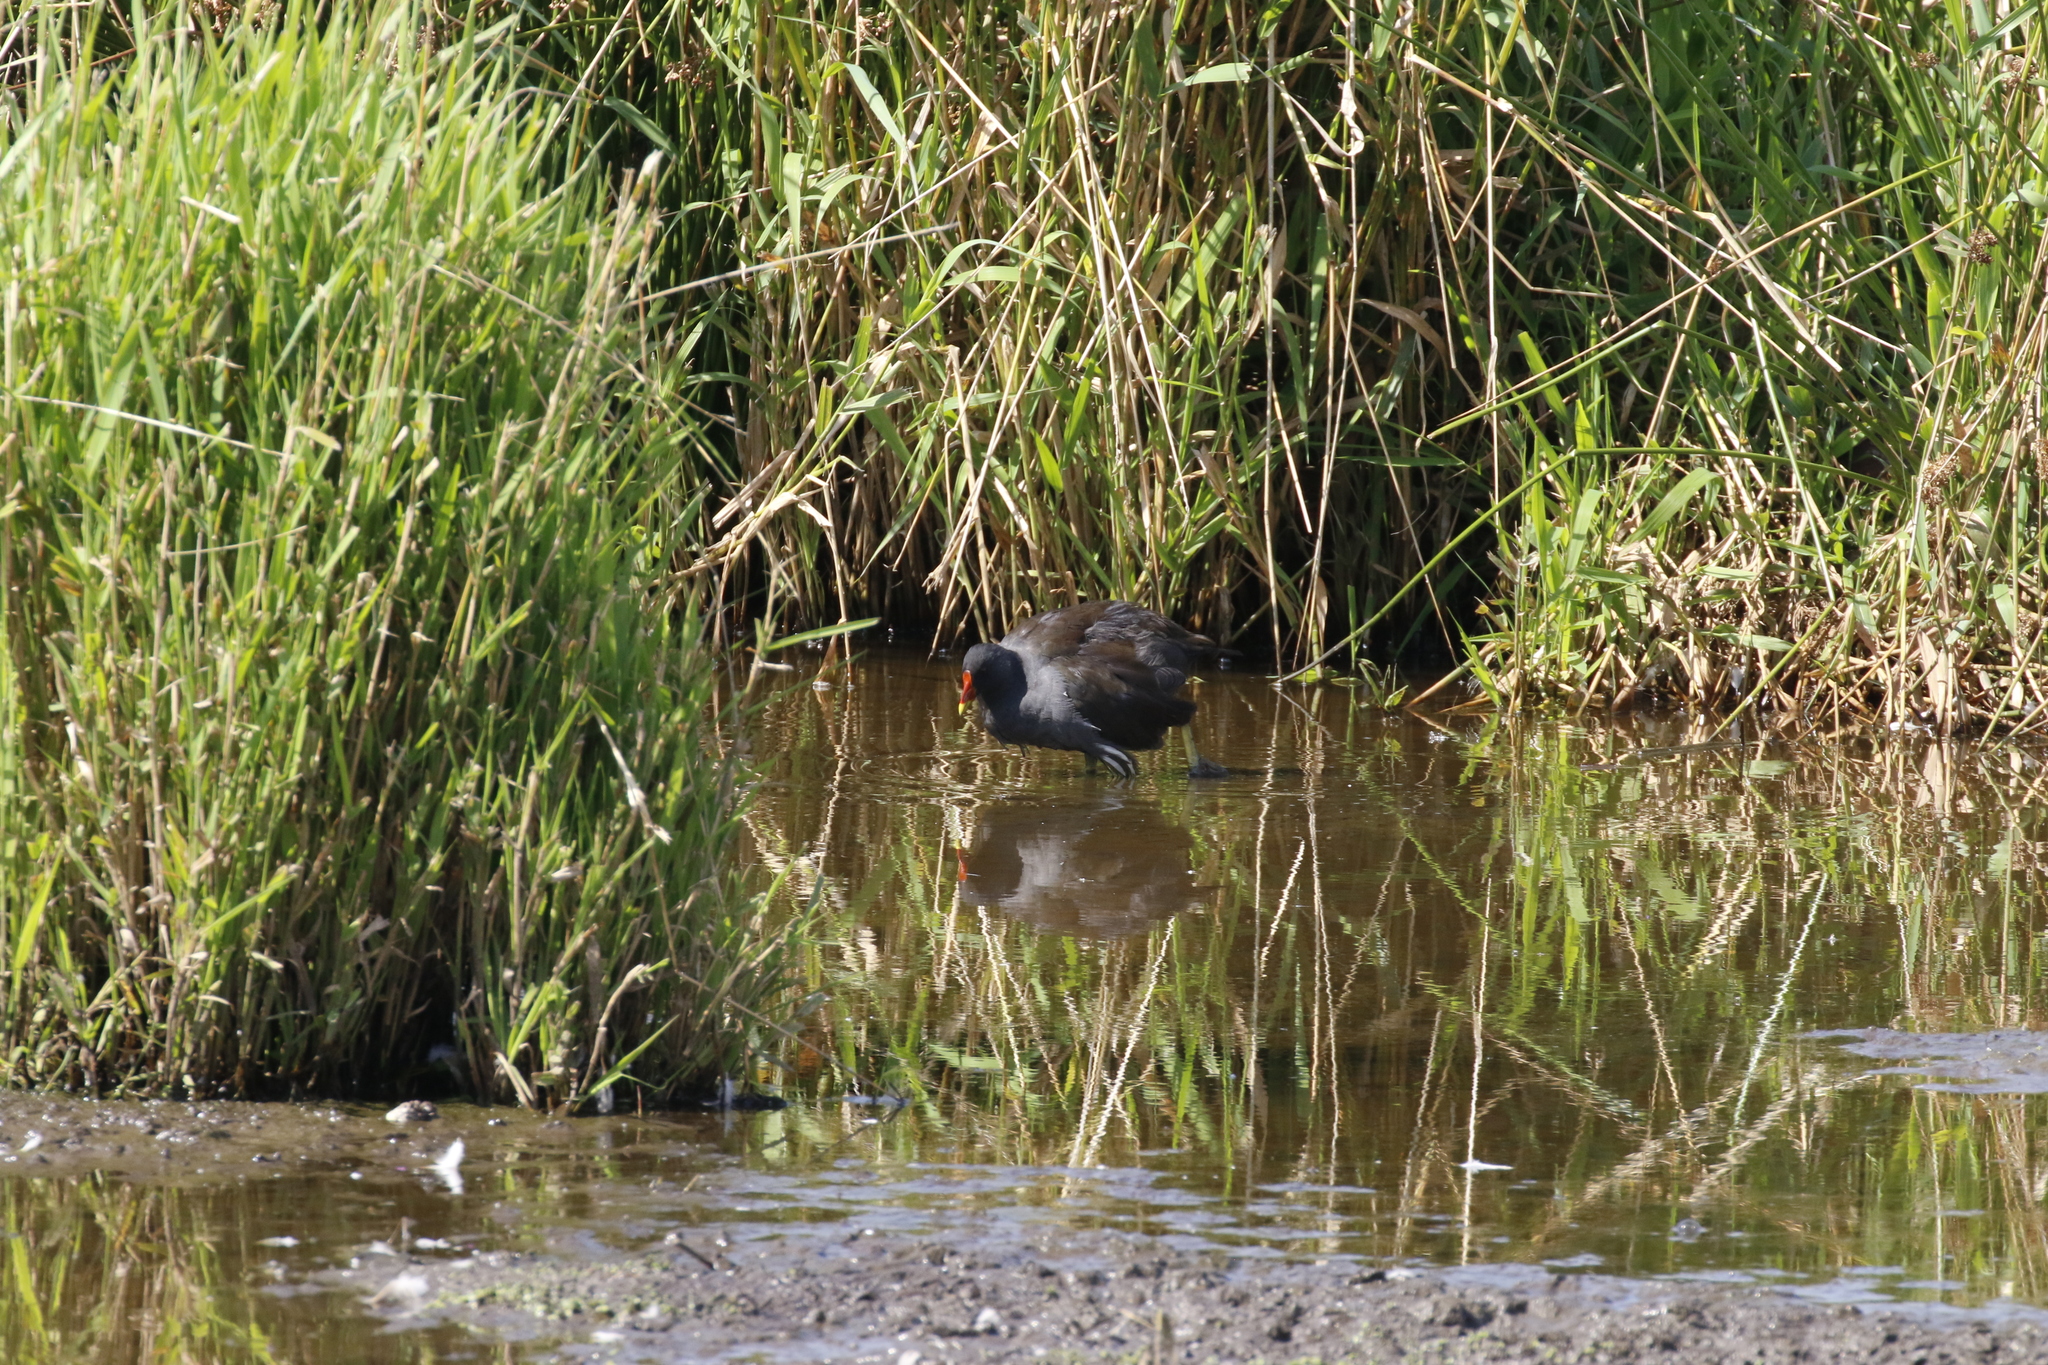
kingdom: Animalia
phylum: Chordata
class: Aves
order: Gruiformes
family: Rallidae
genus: Gallinula
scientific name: Gallinula chloropus
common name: Common moorhen
